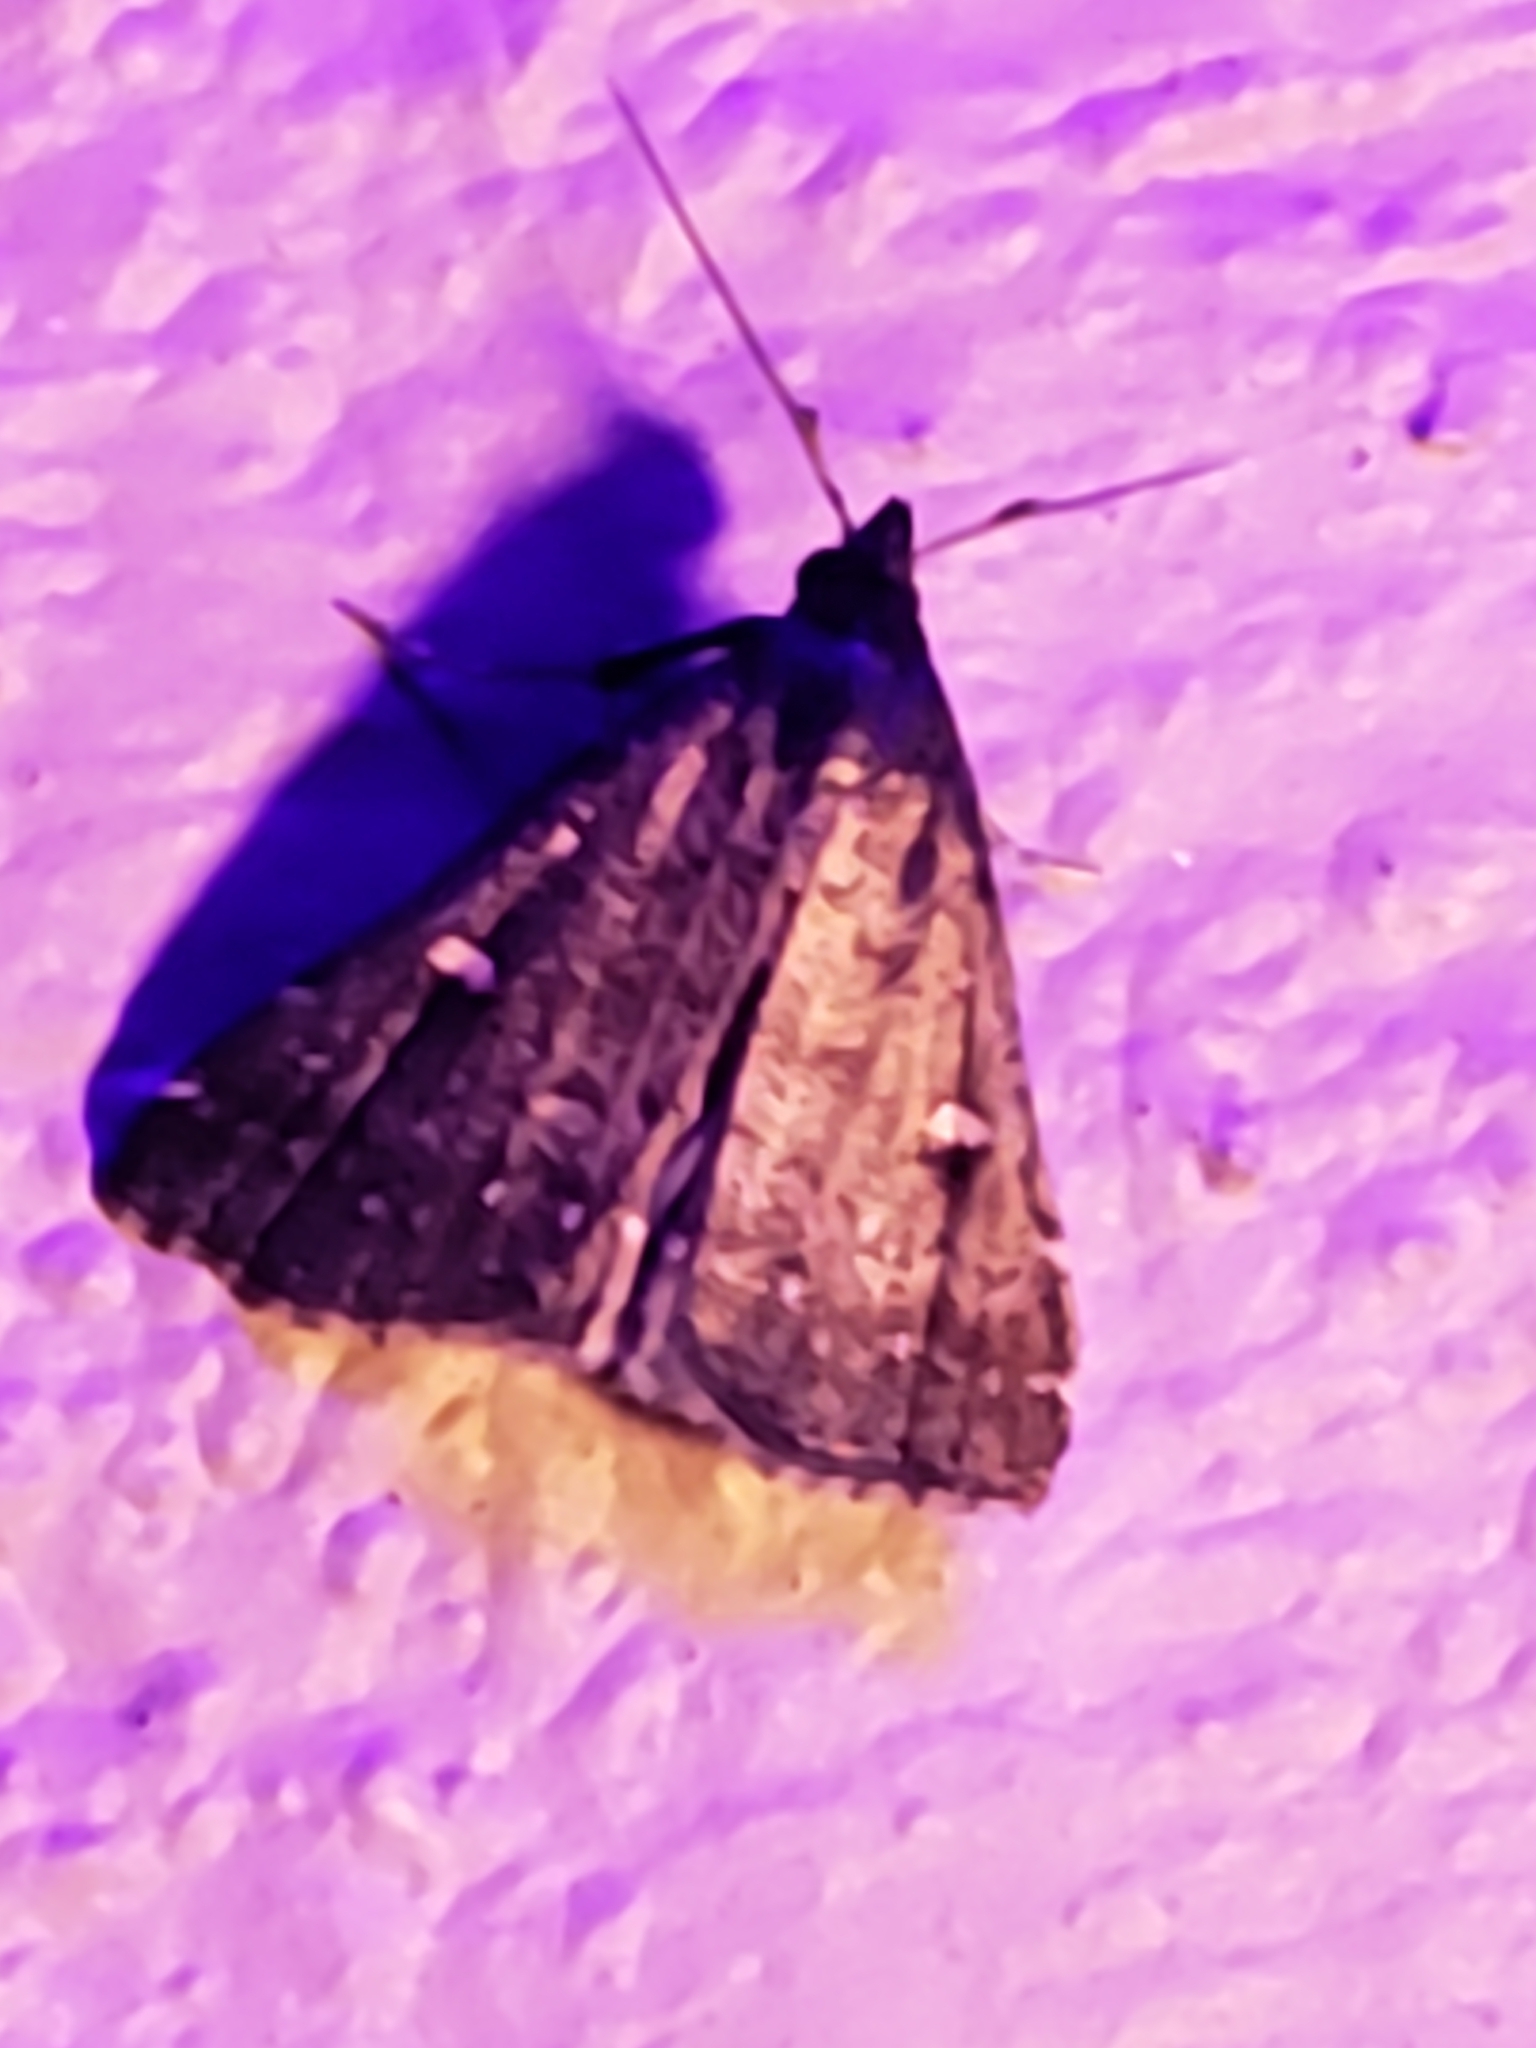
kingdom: Animalia
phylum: Arthropoda
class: Insecta
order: Lepidoptera
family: Erebidae
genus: Tetanolita
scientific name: Tetanolita mynesalis
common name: Smoky tetanolita moth
